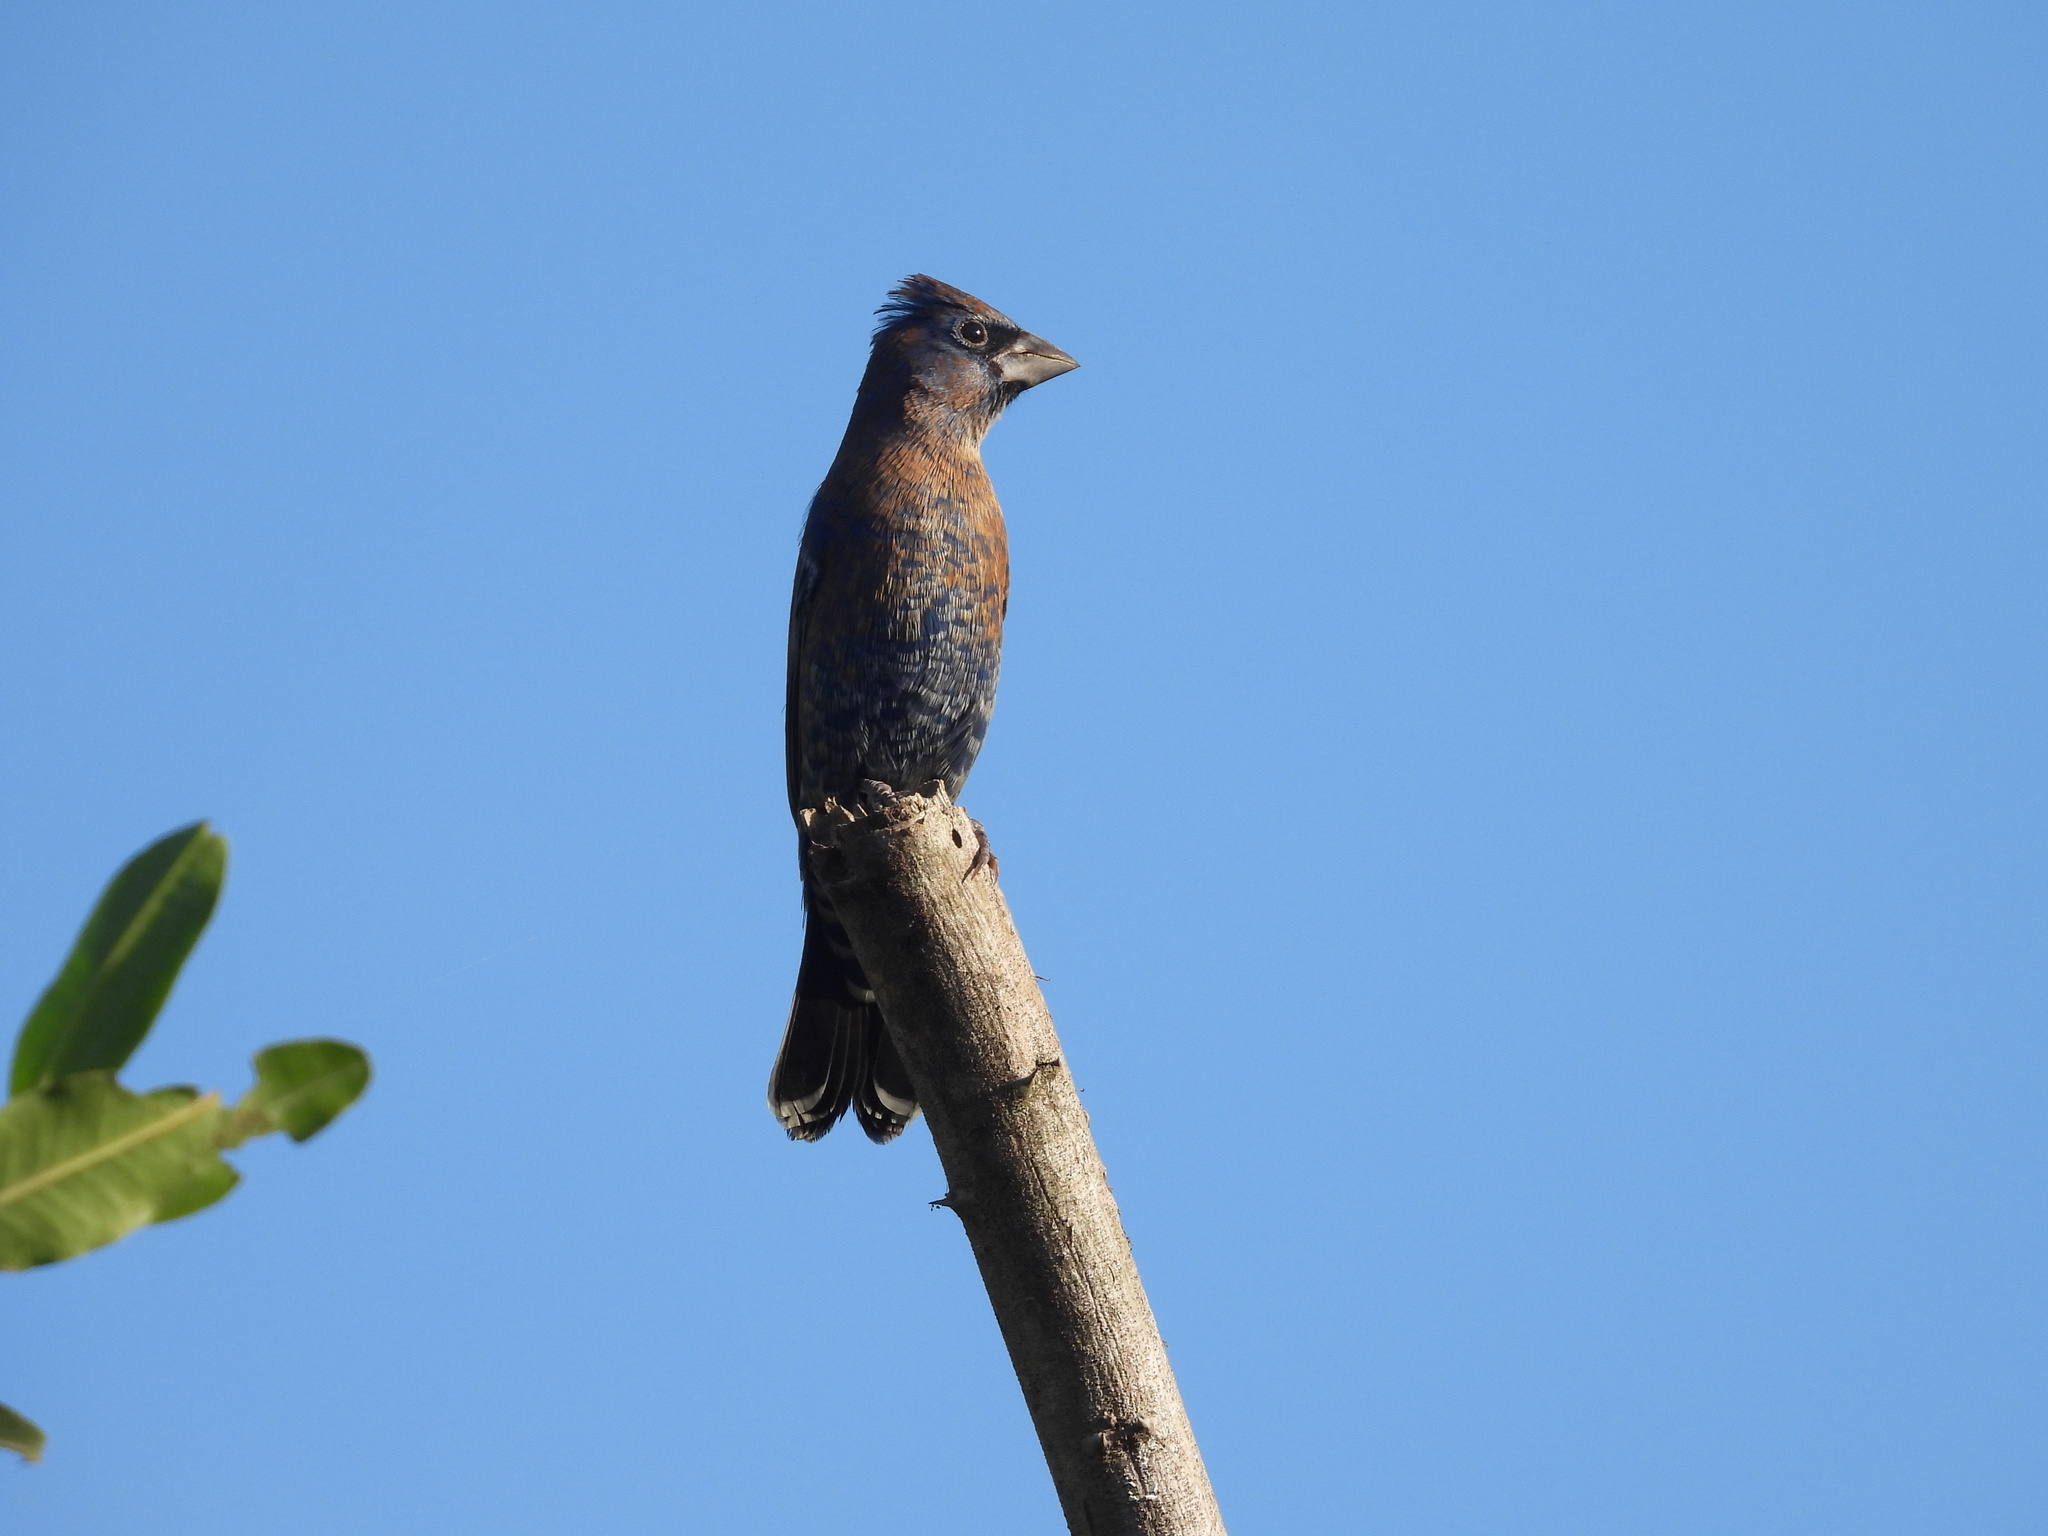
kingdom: Animalia
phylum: Chordata
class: Aves
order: Passeriformes
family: Cardinalidae
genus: Passerina
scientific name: Passerina caerulea
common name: Blue grosbeak
